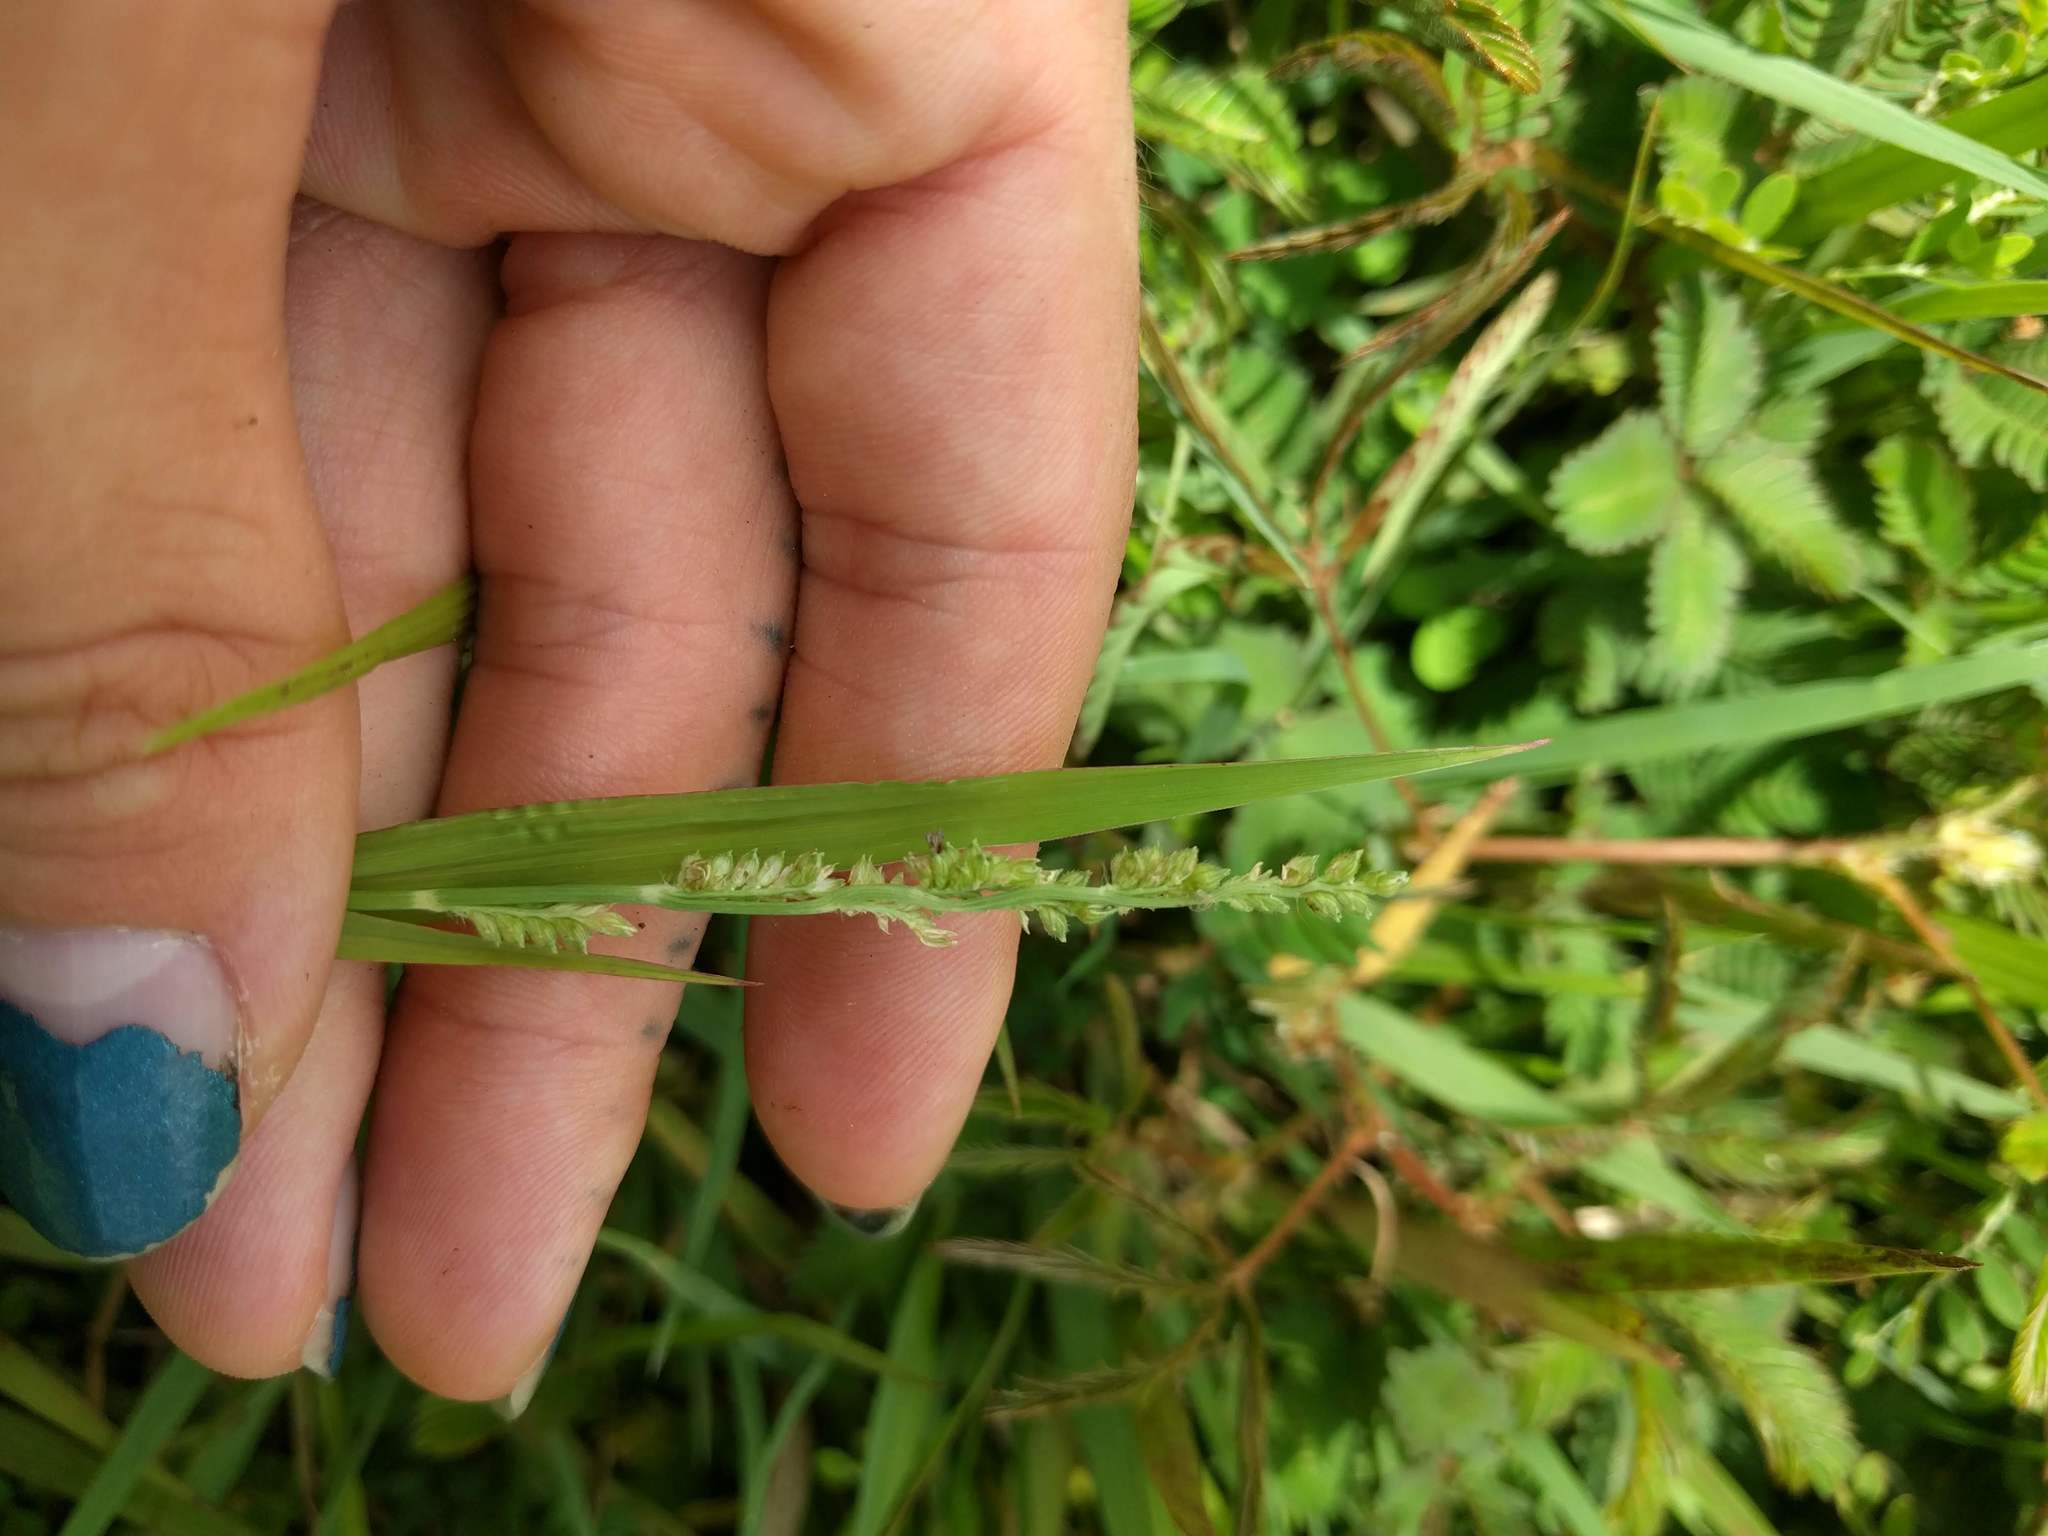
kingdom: Plantae
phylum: Tracheophyta
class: Liliopsida
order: Poales
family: Poaceae
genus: Echinochloa
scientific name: Echinochloa colonum
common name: Jungle rice
